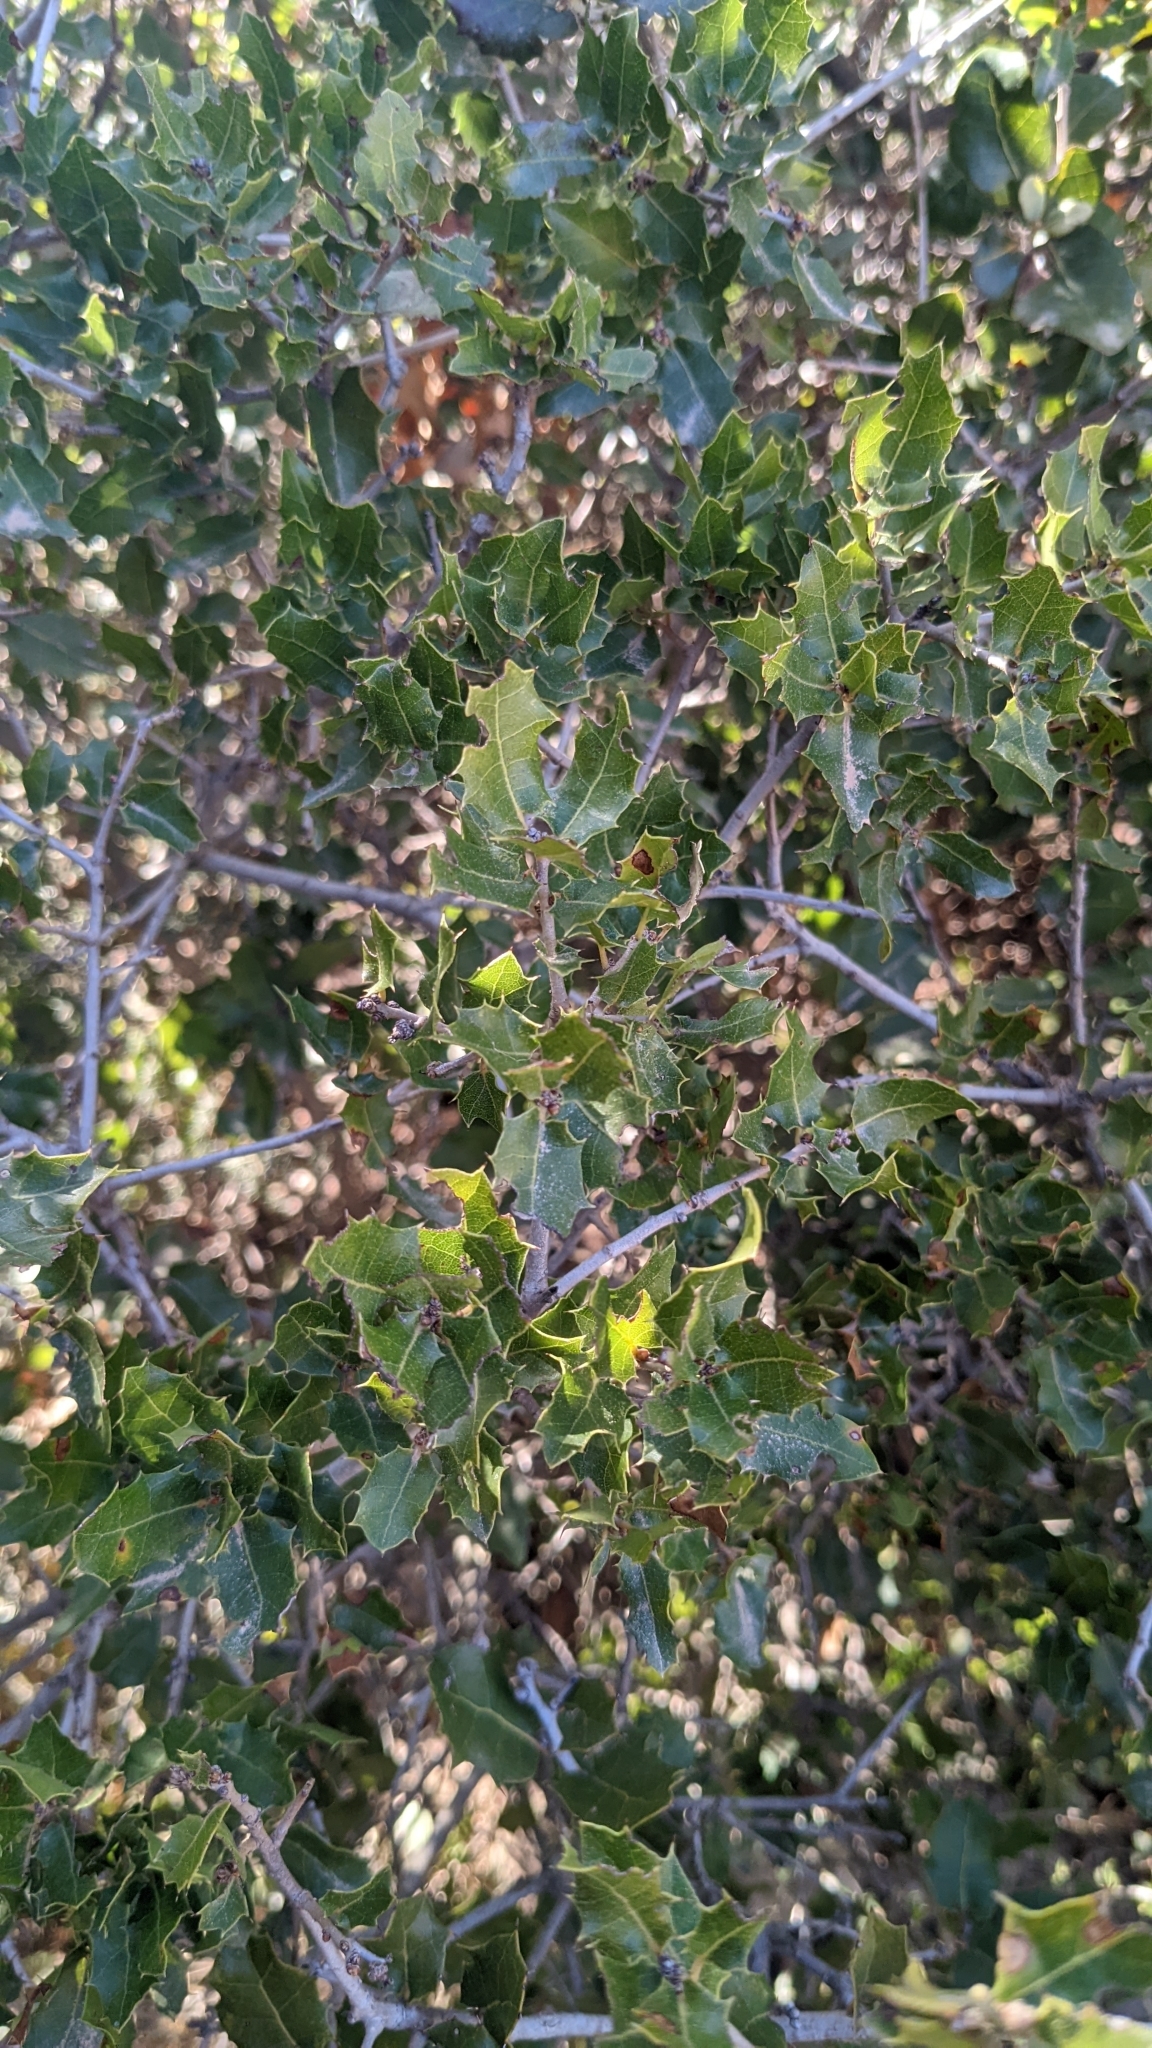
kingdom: Plantae
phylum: Tracheophyta
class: Magnoliopsida
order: Fagales
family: Fagaceae
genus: Quercus
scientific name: Quercus coccifera
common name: Kermes oak
